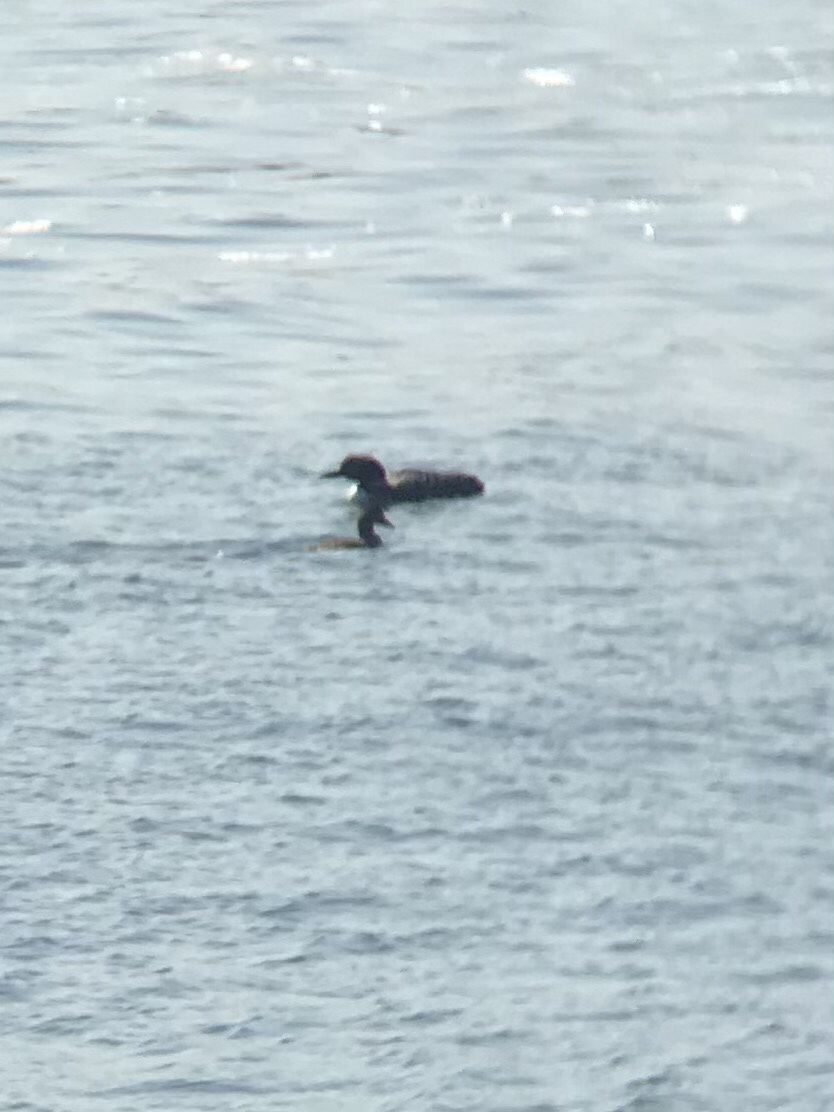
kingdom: Animalia
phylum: Chordata
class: Aves
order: Gaviiformes
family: Gaviidae
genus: Gavia
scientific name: Gavia immer
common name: Common loon
